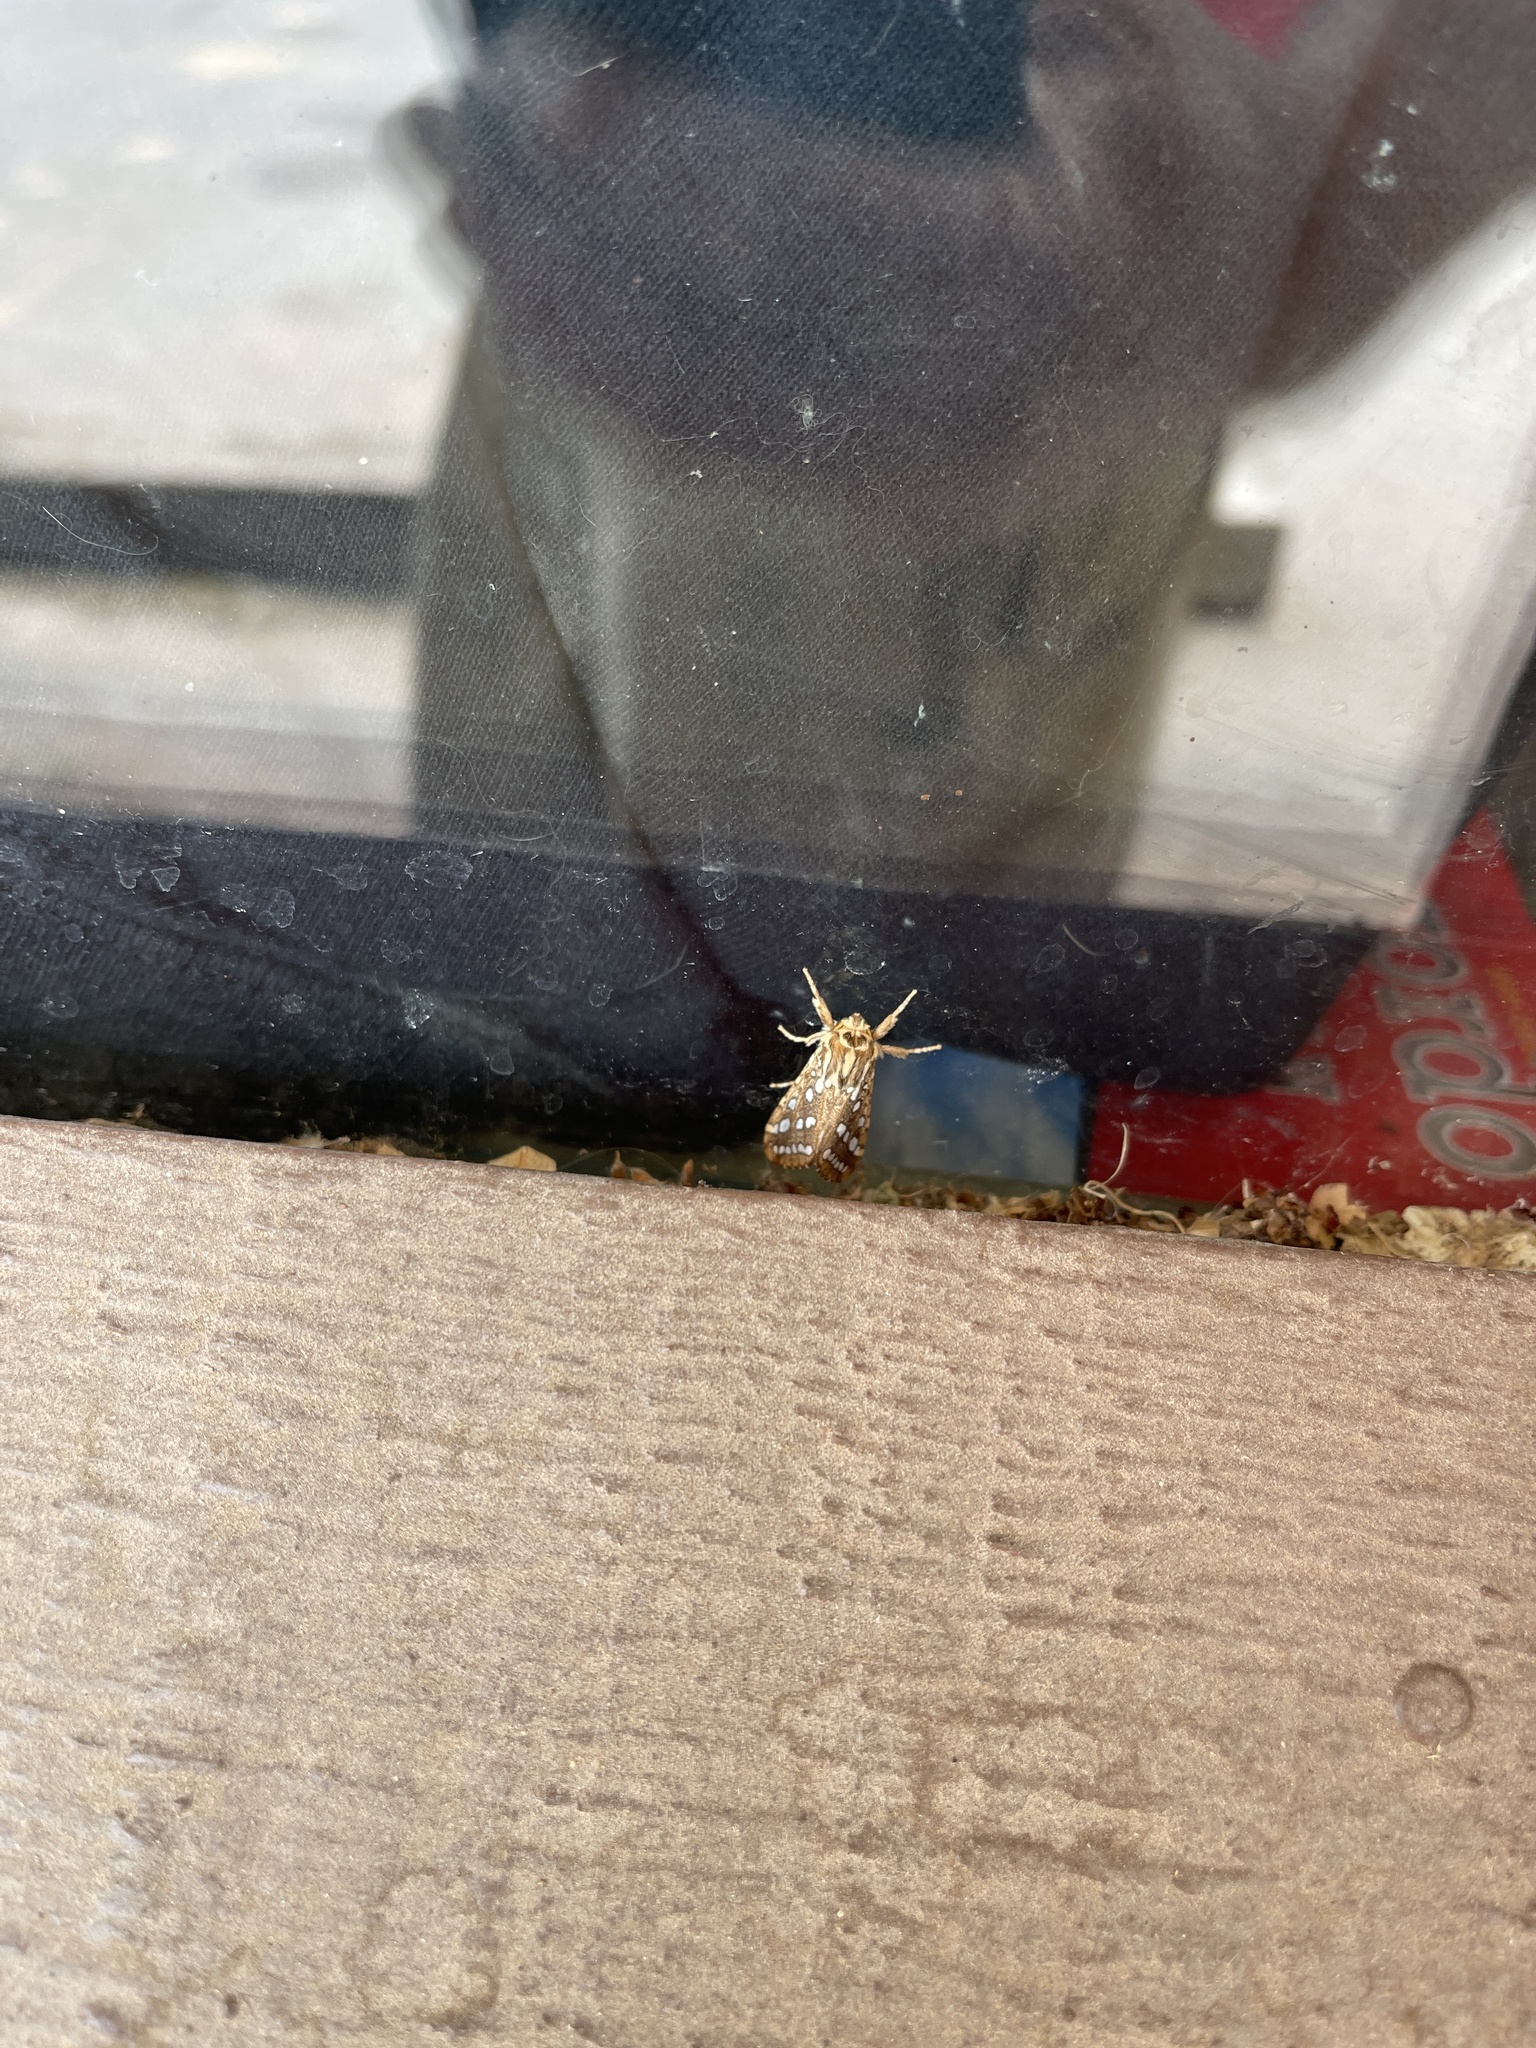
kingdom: Animalia
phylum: Arthropoda
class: Insecta
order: Lepidoptera
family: Erebidae
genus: Lophocampa
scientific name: Lophocampa argentata
